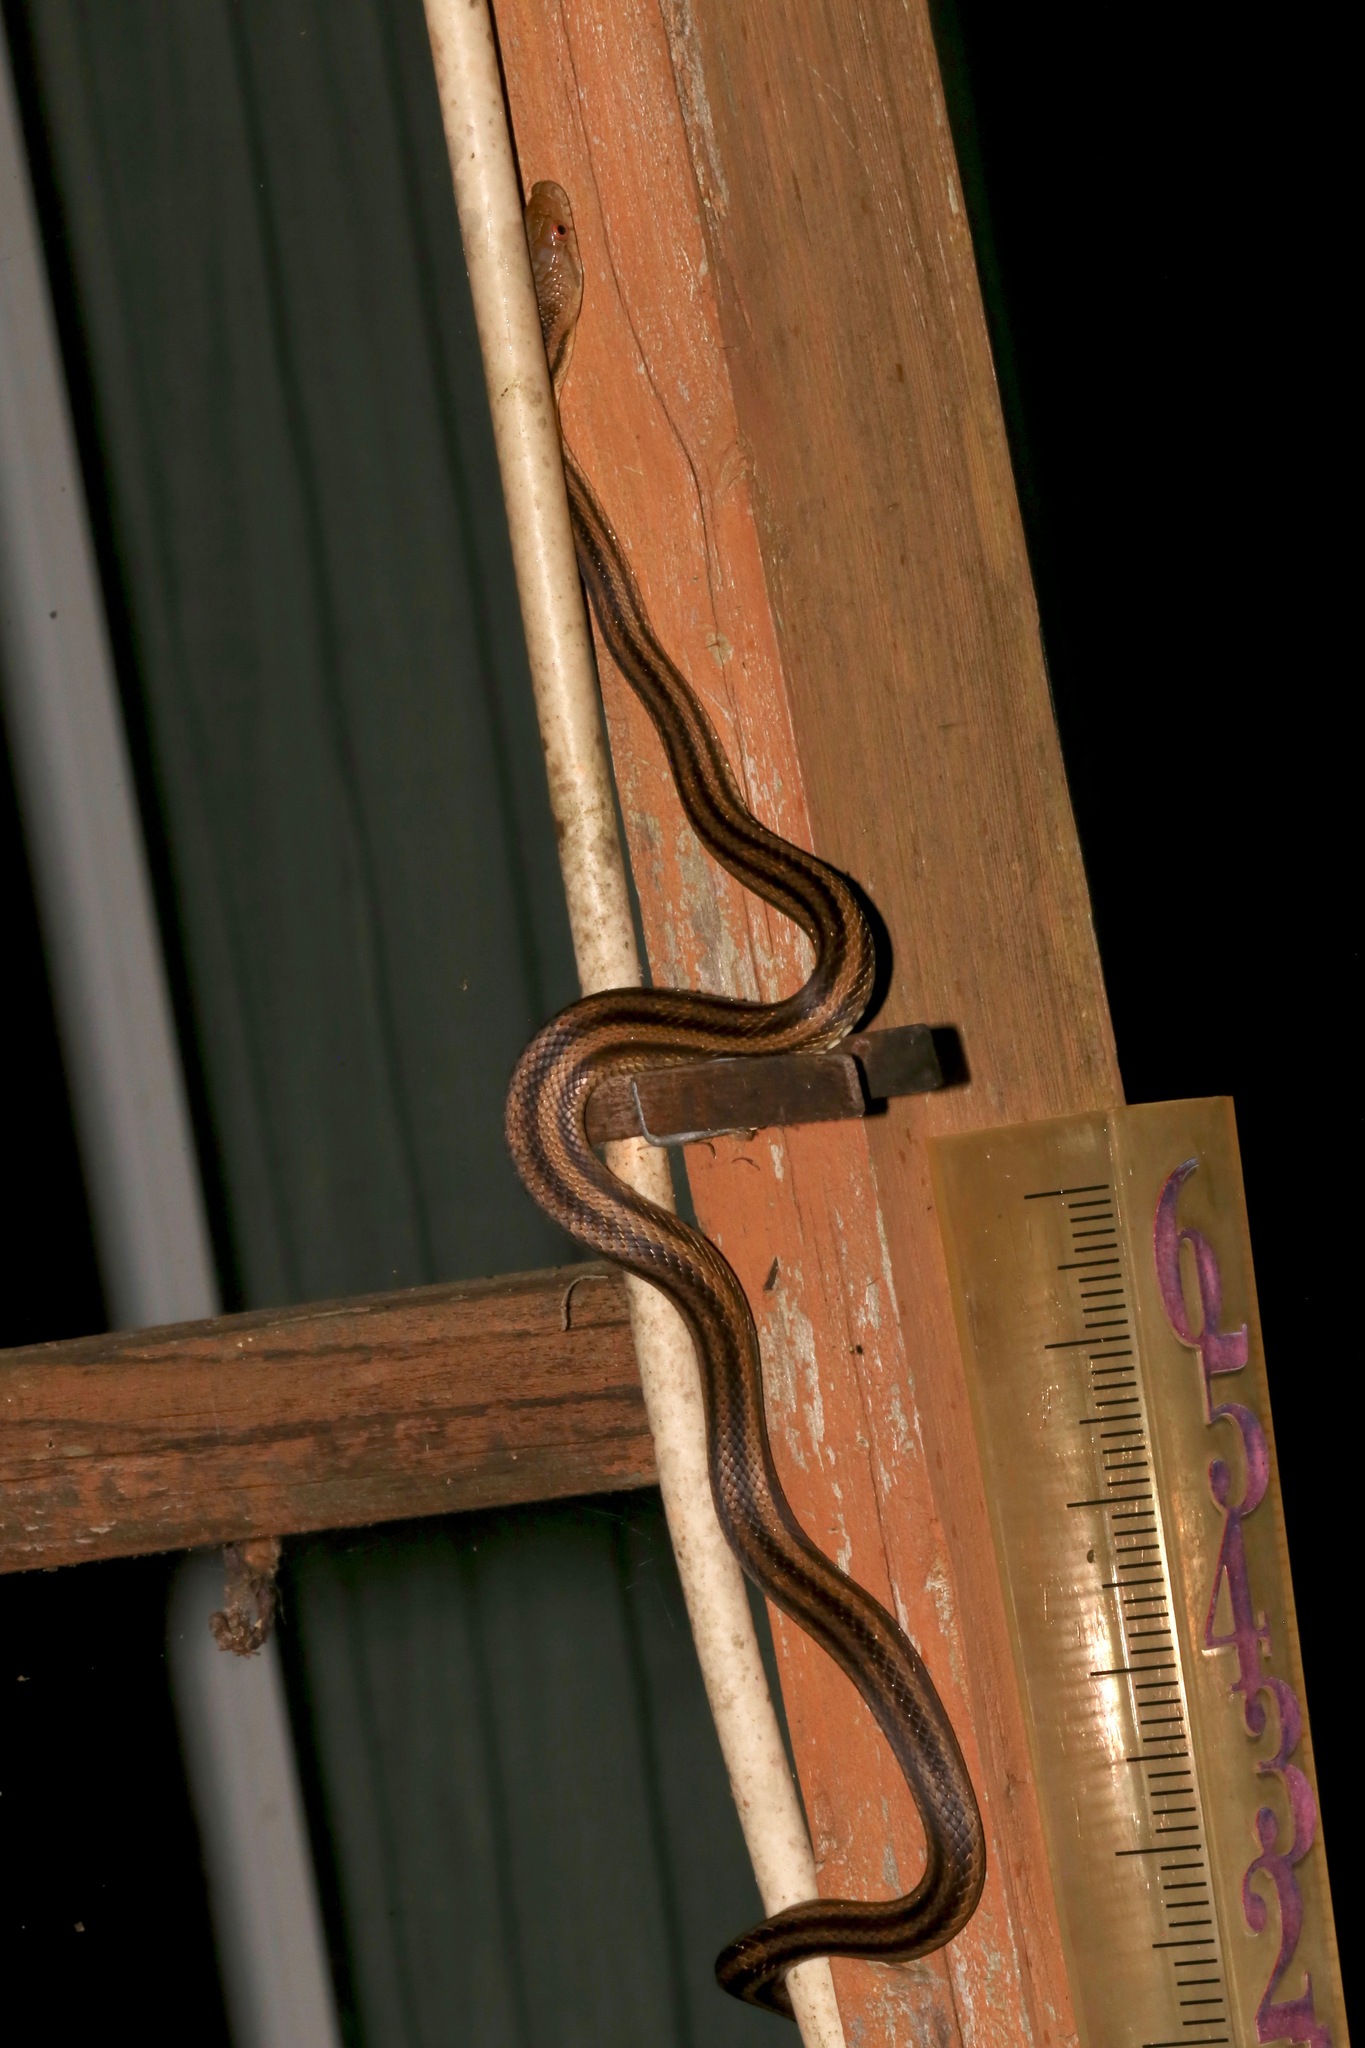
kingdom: Animalia
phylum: Chordata
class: Squamata
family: Colubridae
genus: Pantherophis
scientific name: Pantherophis alleghaniensis
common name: Eastern rat snake
